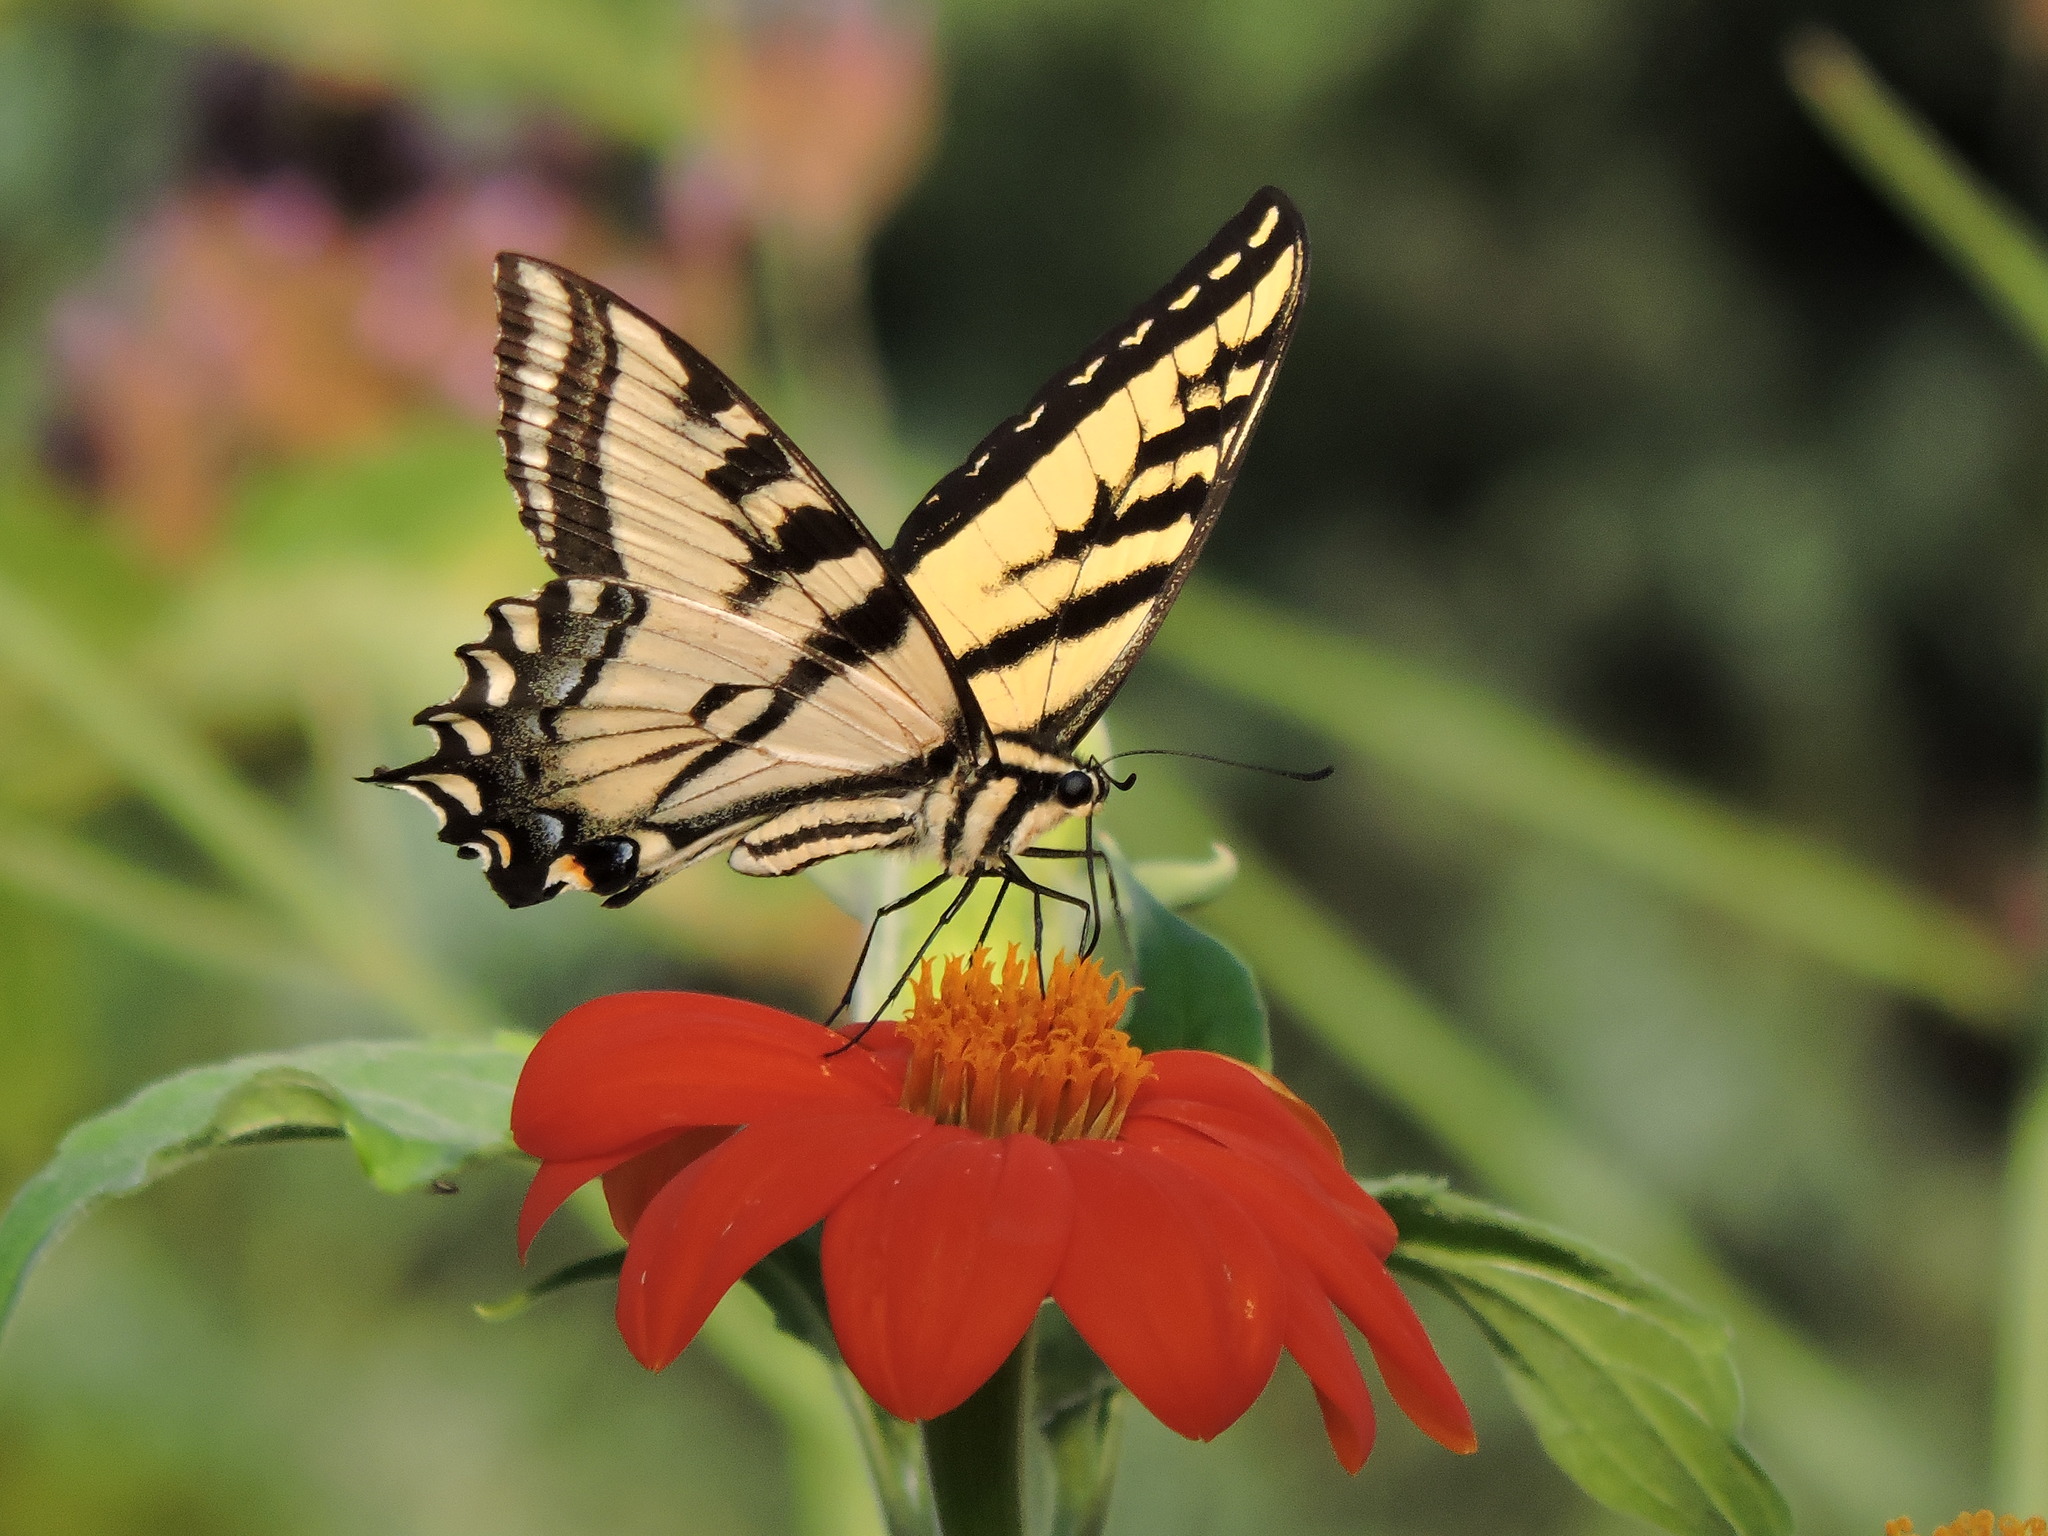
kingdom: Animalia
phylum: Arthropoda
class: Insecta
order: Lepidoptera
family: Papilionidae
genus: Papilio
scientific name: Papilio rutulus
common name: Western tiger swallowtail
